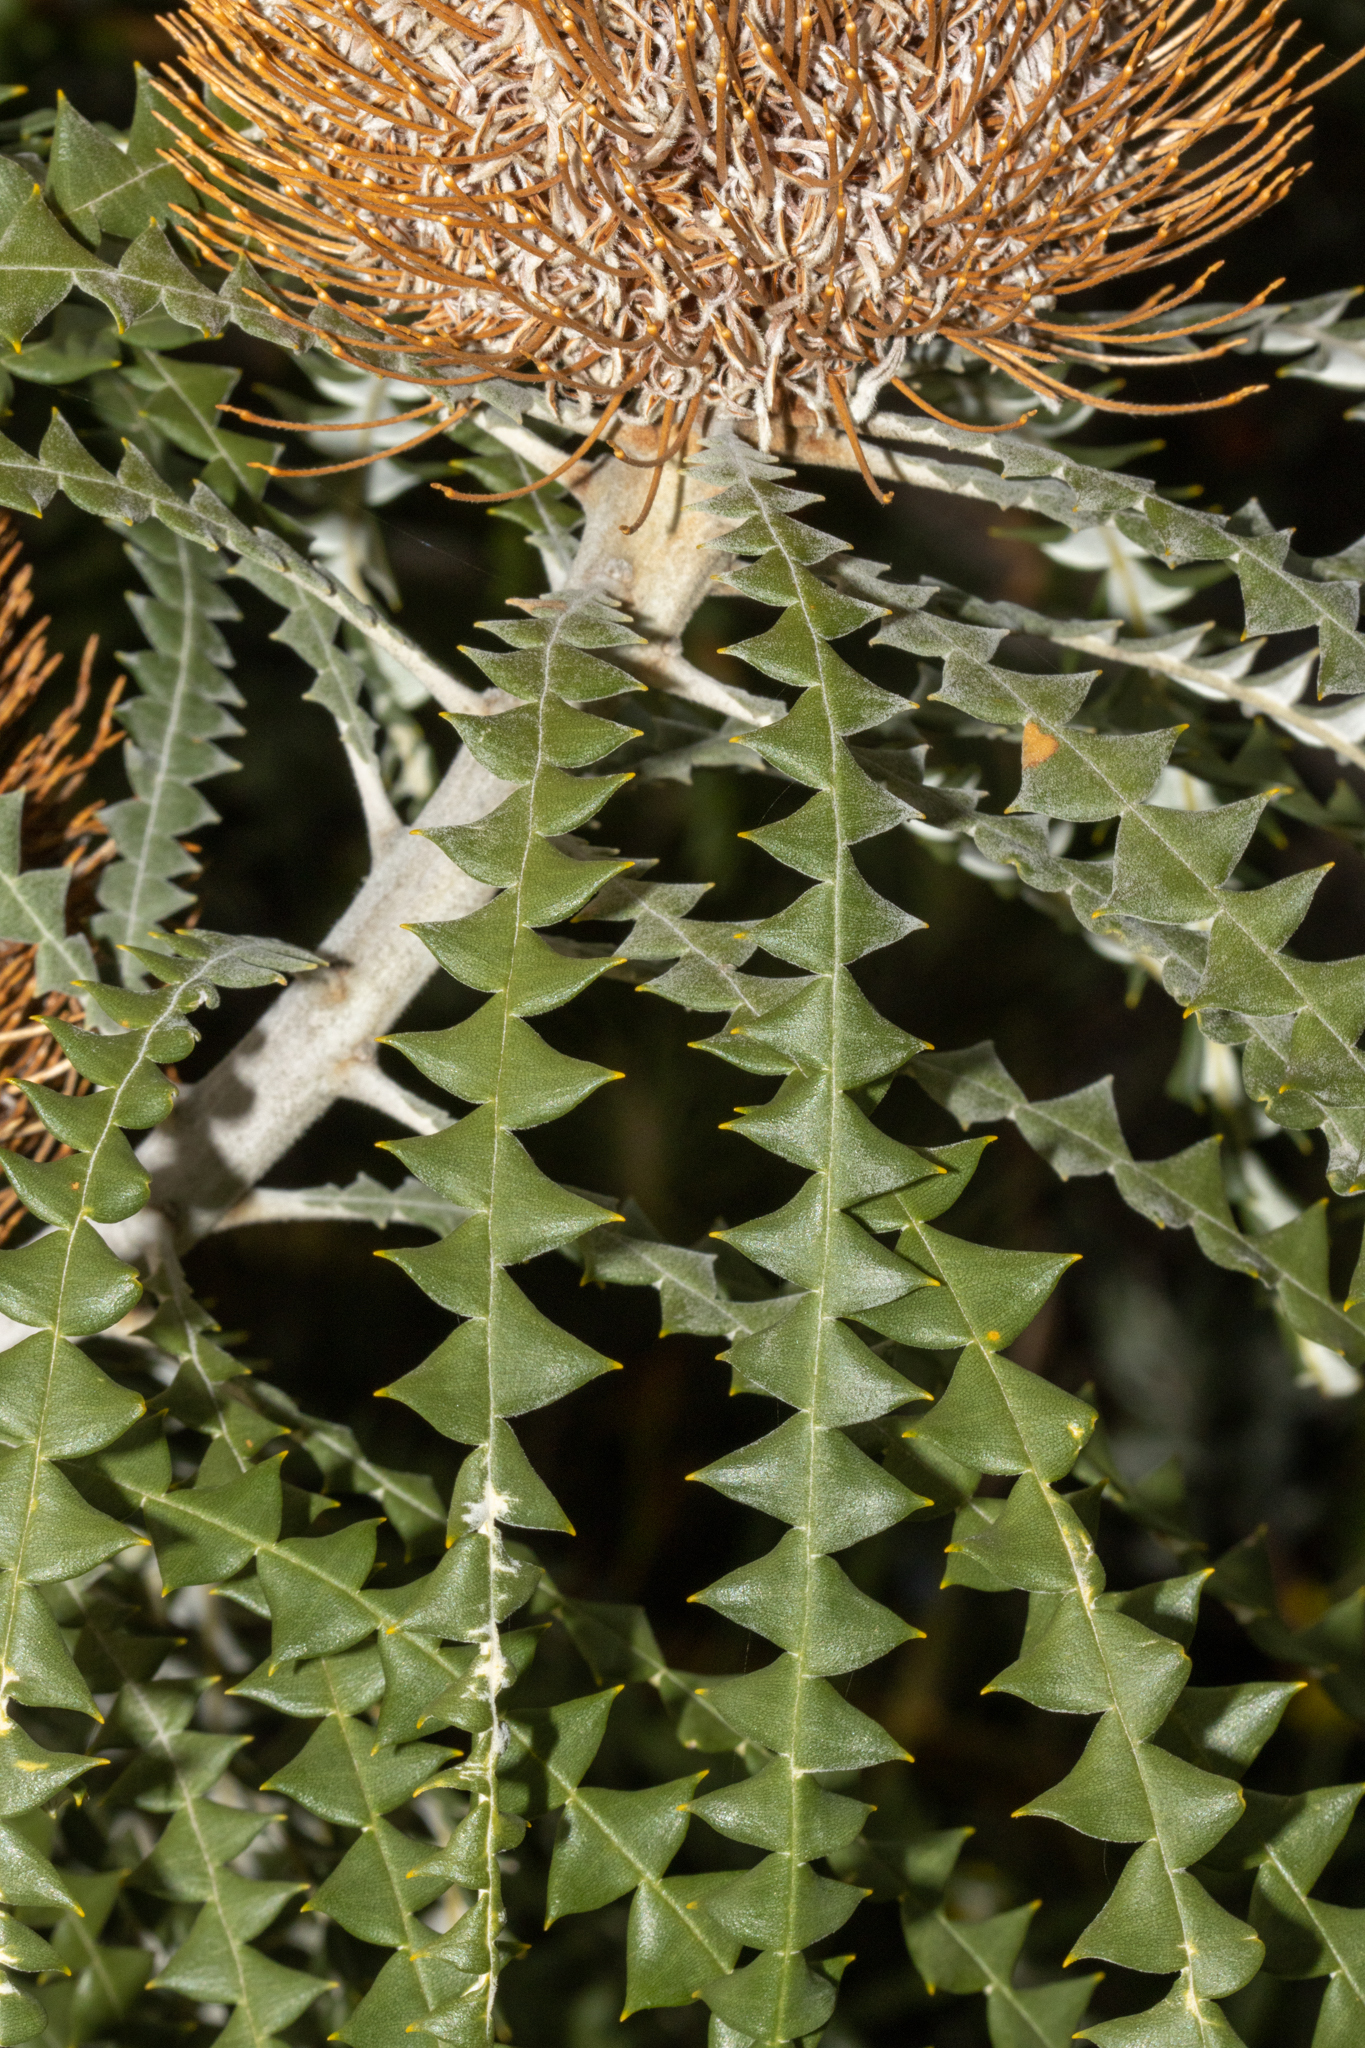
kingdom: Plantae
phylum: Tracheophyta
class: Magnoliopsida
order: Proteales
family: Proteaceae
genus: Banksia
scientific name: Banksia speciosa
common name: Showy banksia
